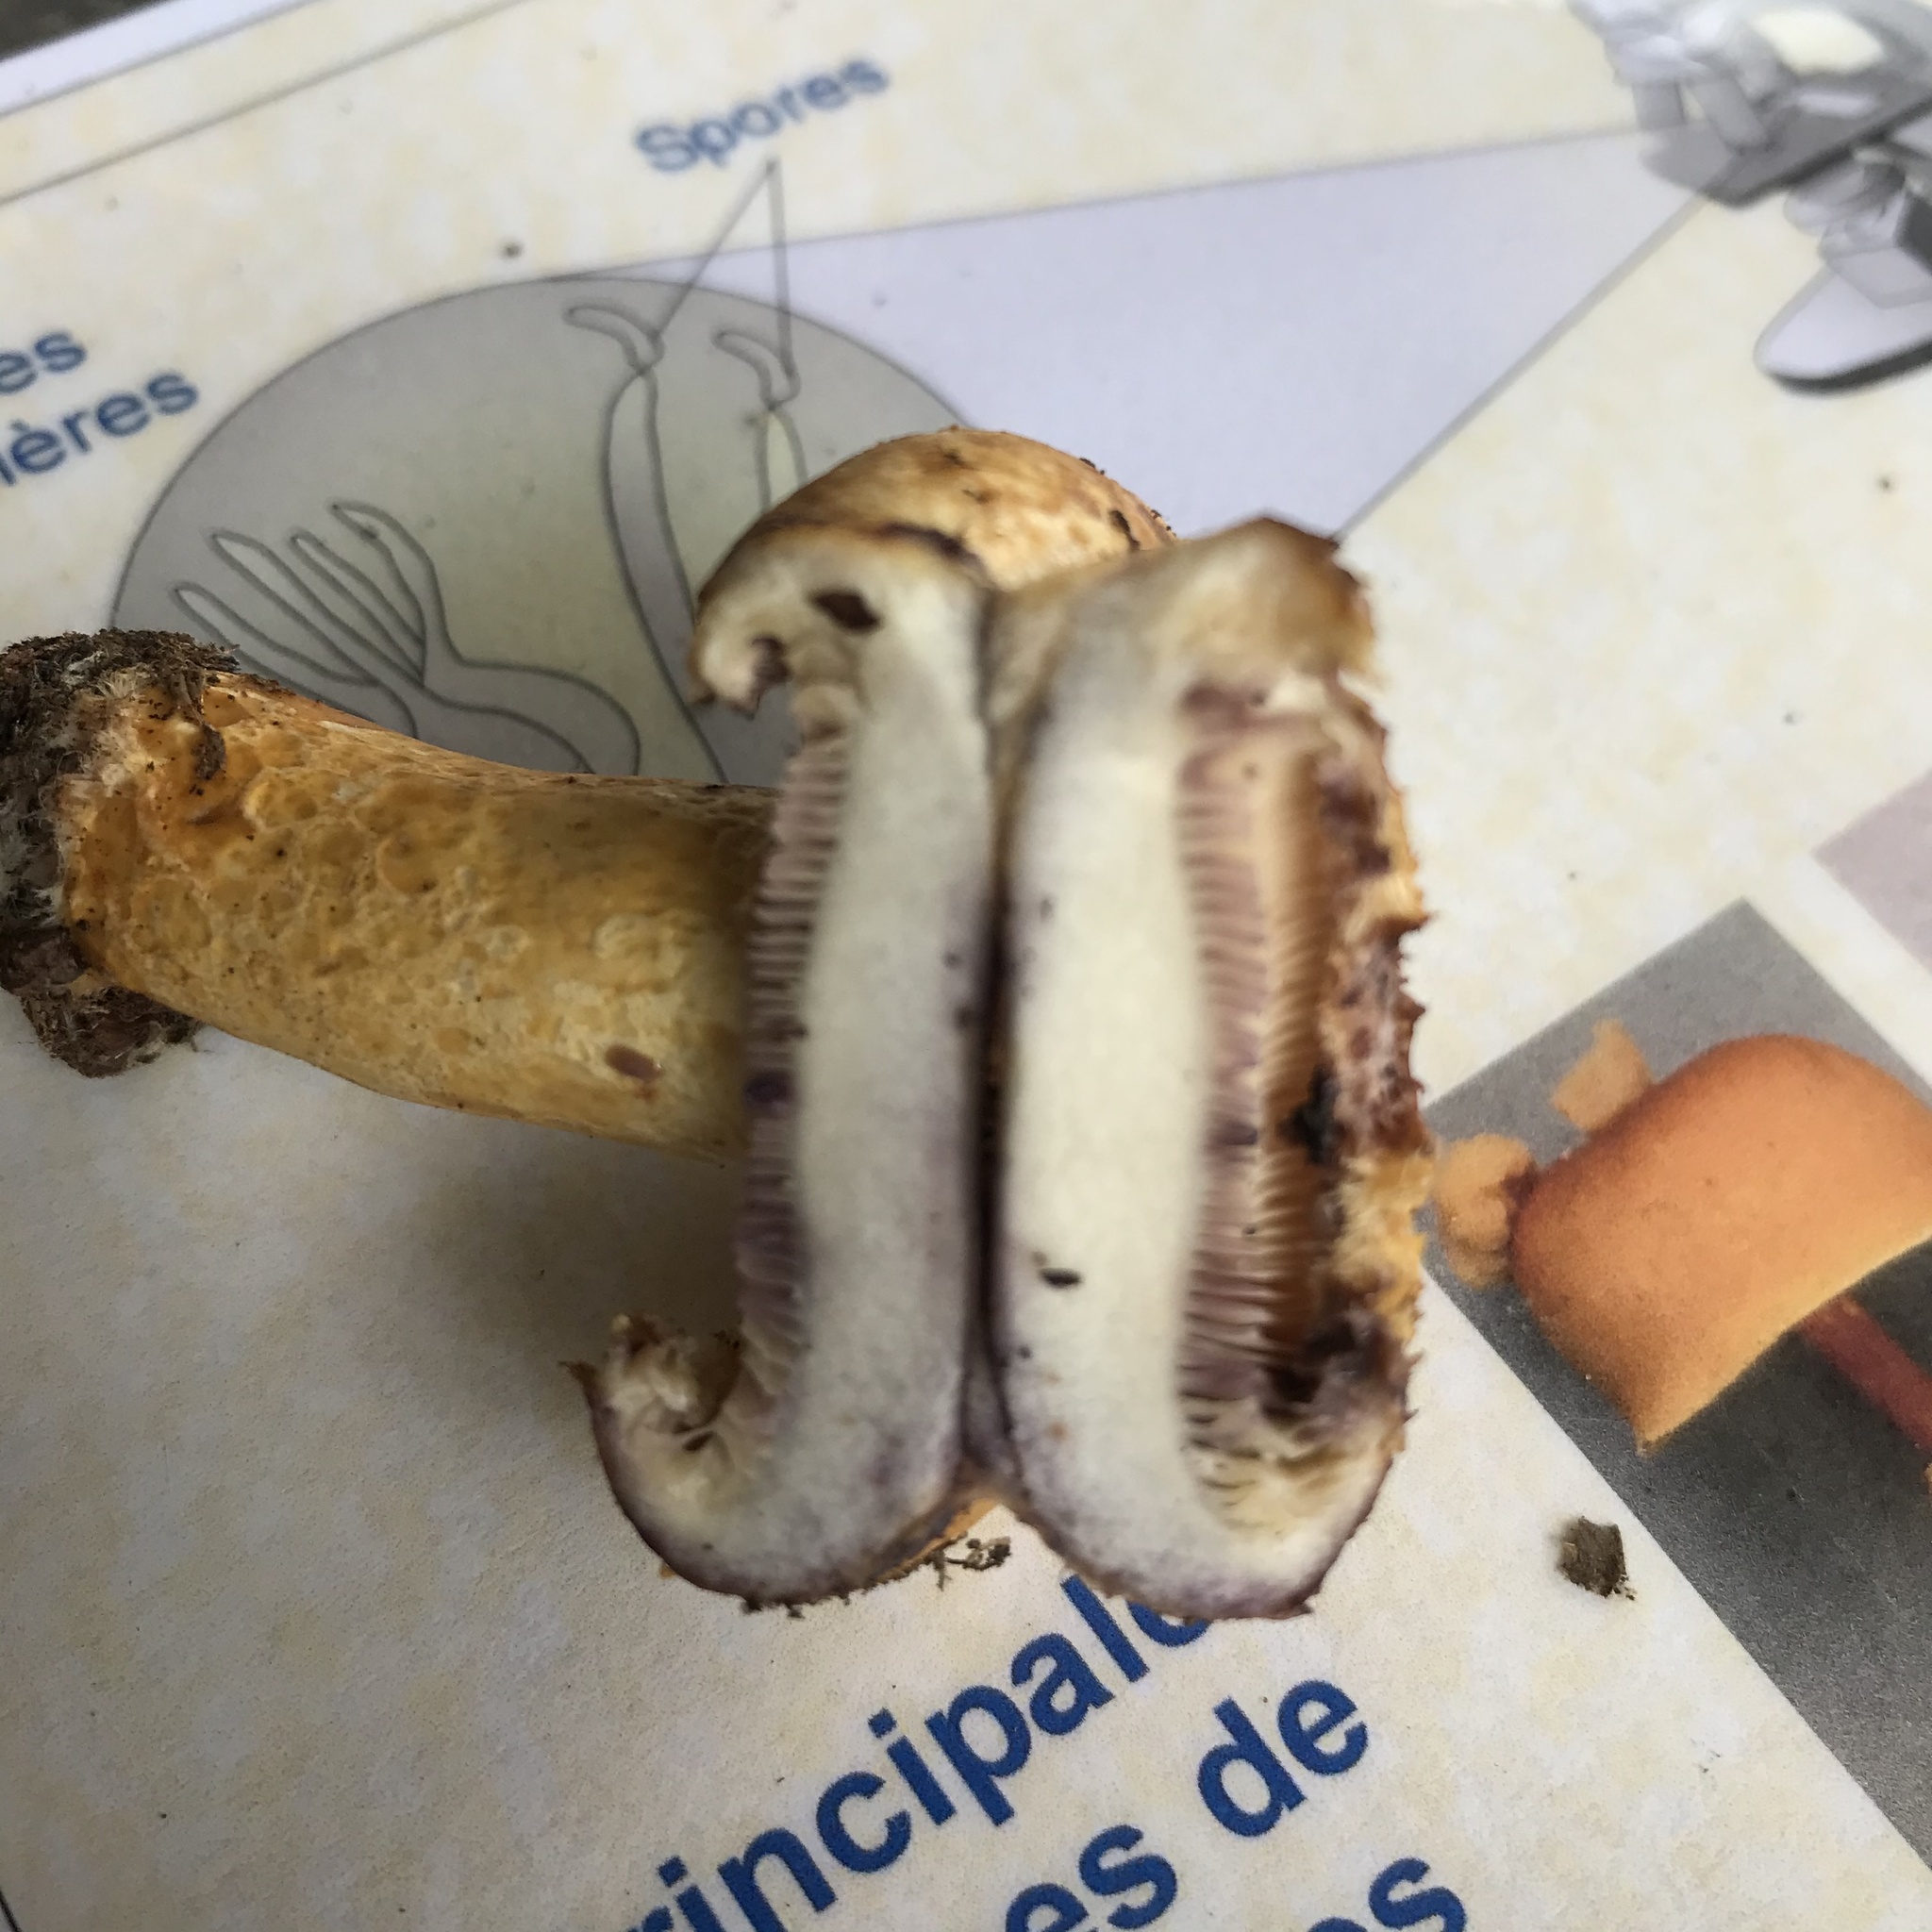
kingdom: Fungi
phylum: Basidiomycota
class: Agaricomycetes
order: Russulales
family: Russulaceae
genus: Lactarius
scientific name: Lactarius repraesentaneus
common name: Yellow bearded milkcap
